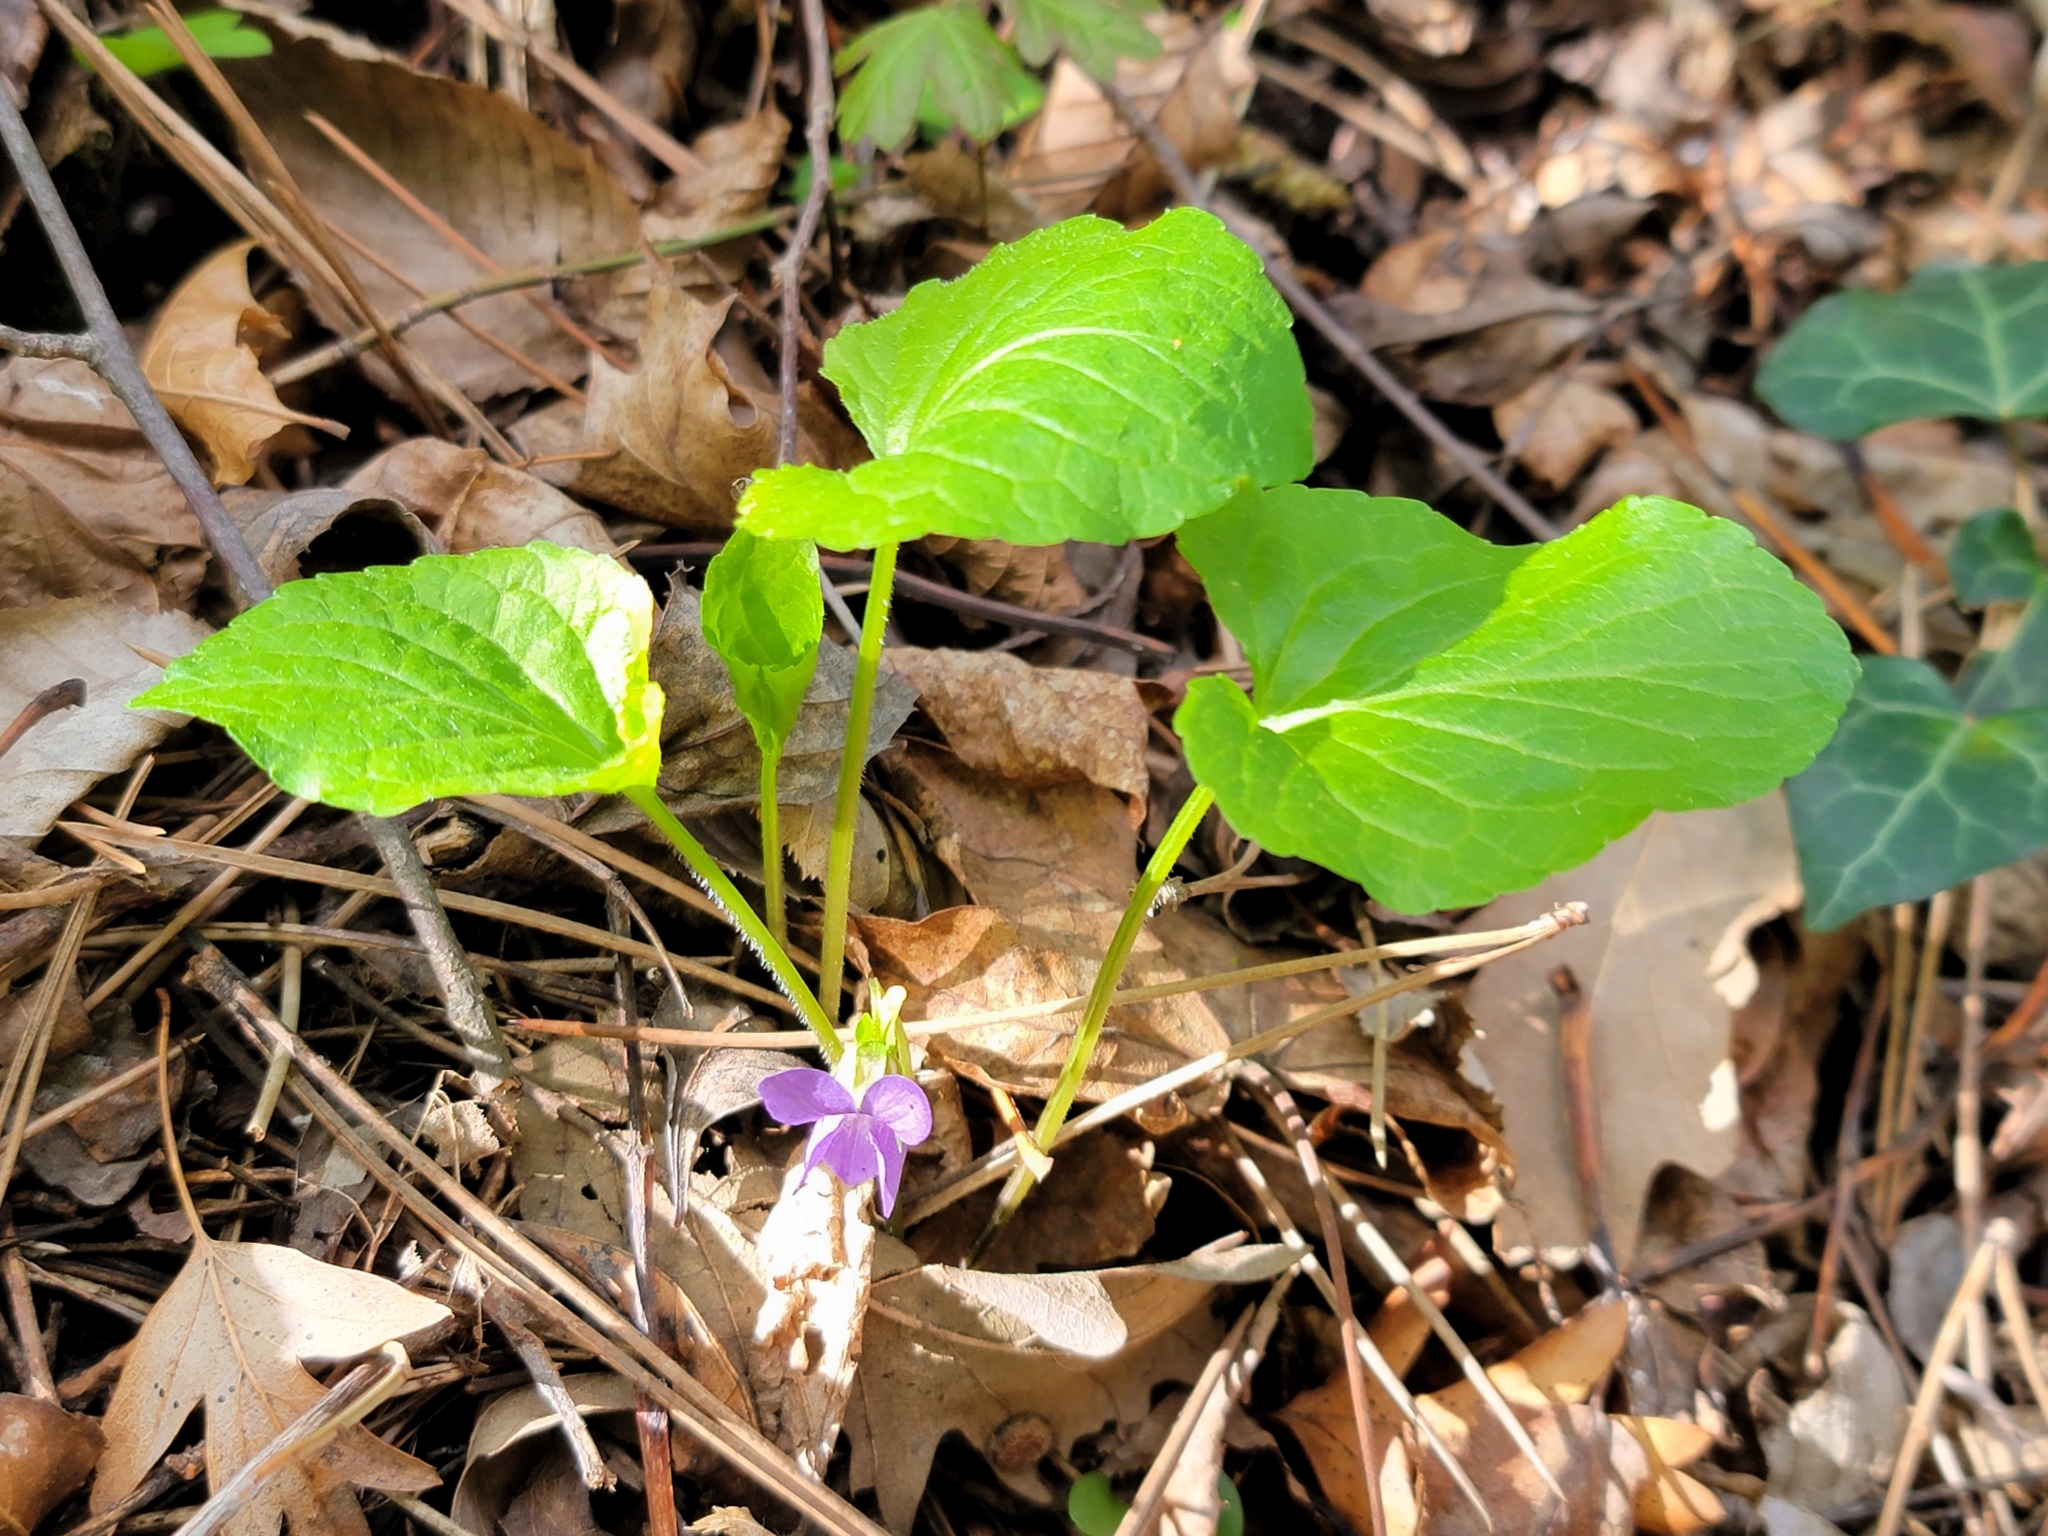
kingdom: Plantae
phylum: Tracheophyta
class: Magnoliopsida
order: Malpighiales
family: Violaceae
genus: Viola
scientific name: Viola mirabilis
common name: Wonder violet
